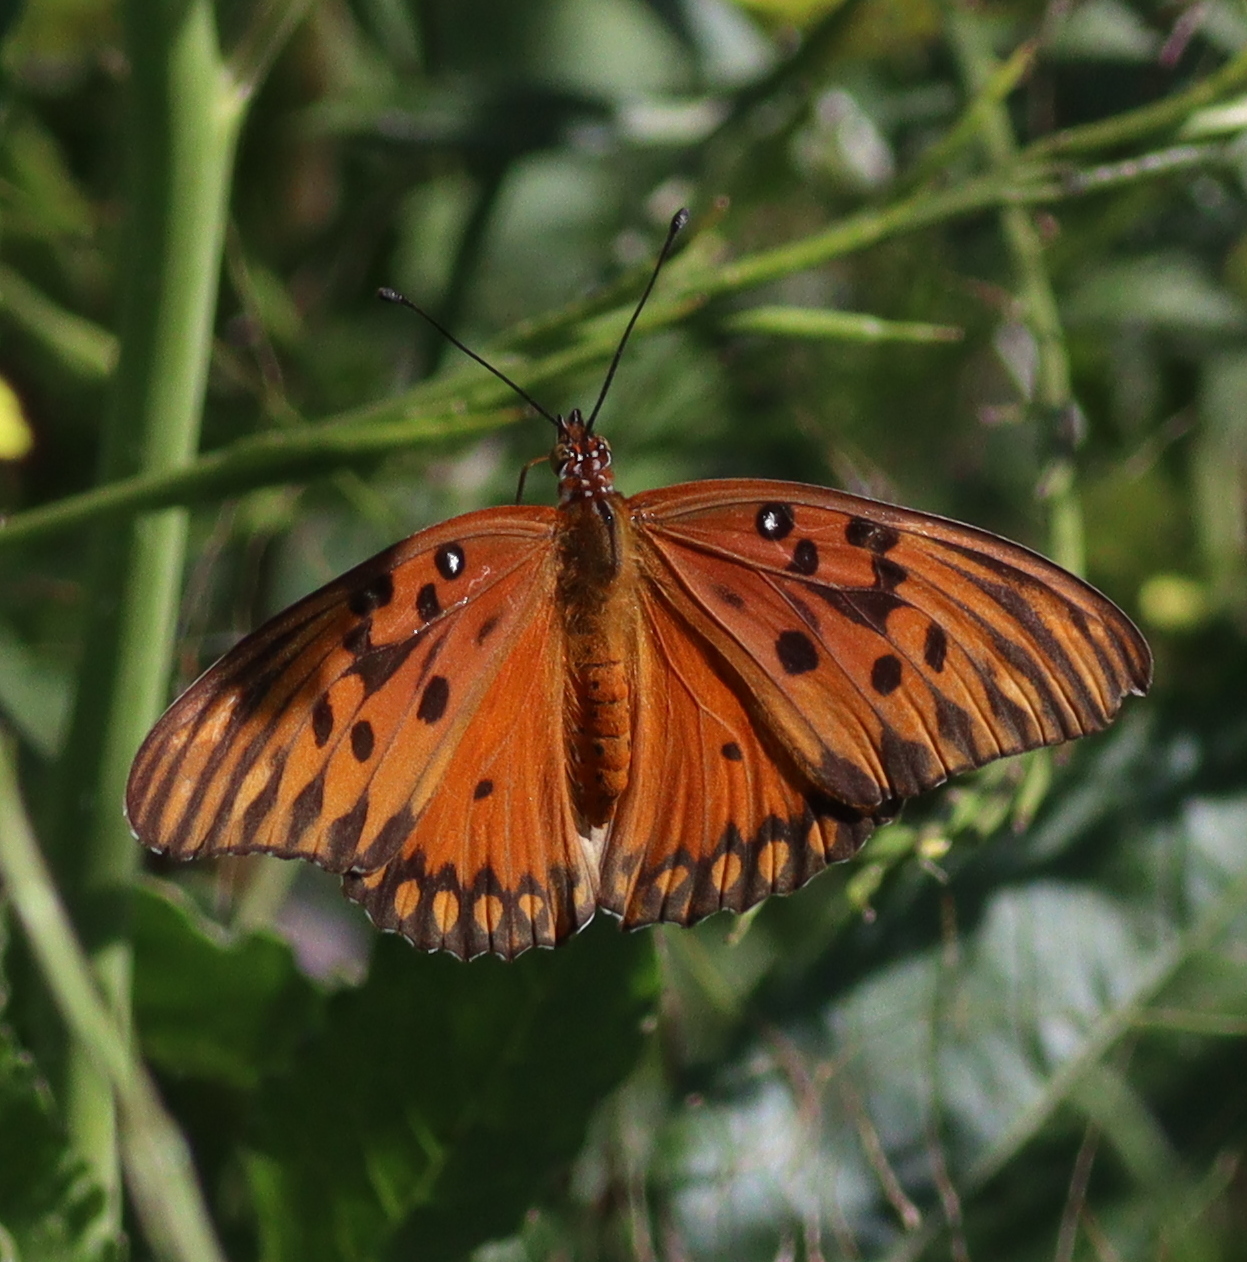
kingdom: Animalia
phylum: Arthropoda
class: Insecta
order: Lepidoptera
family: Nymphalidae
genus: Dione
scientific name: Dione vanillae
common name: Gulf fritillary
